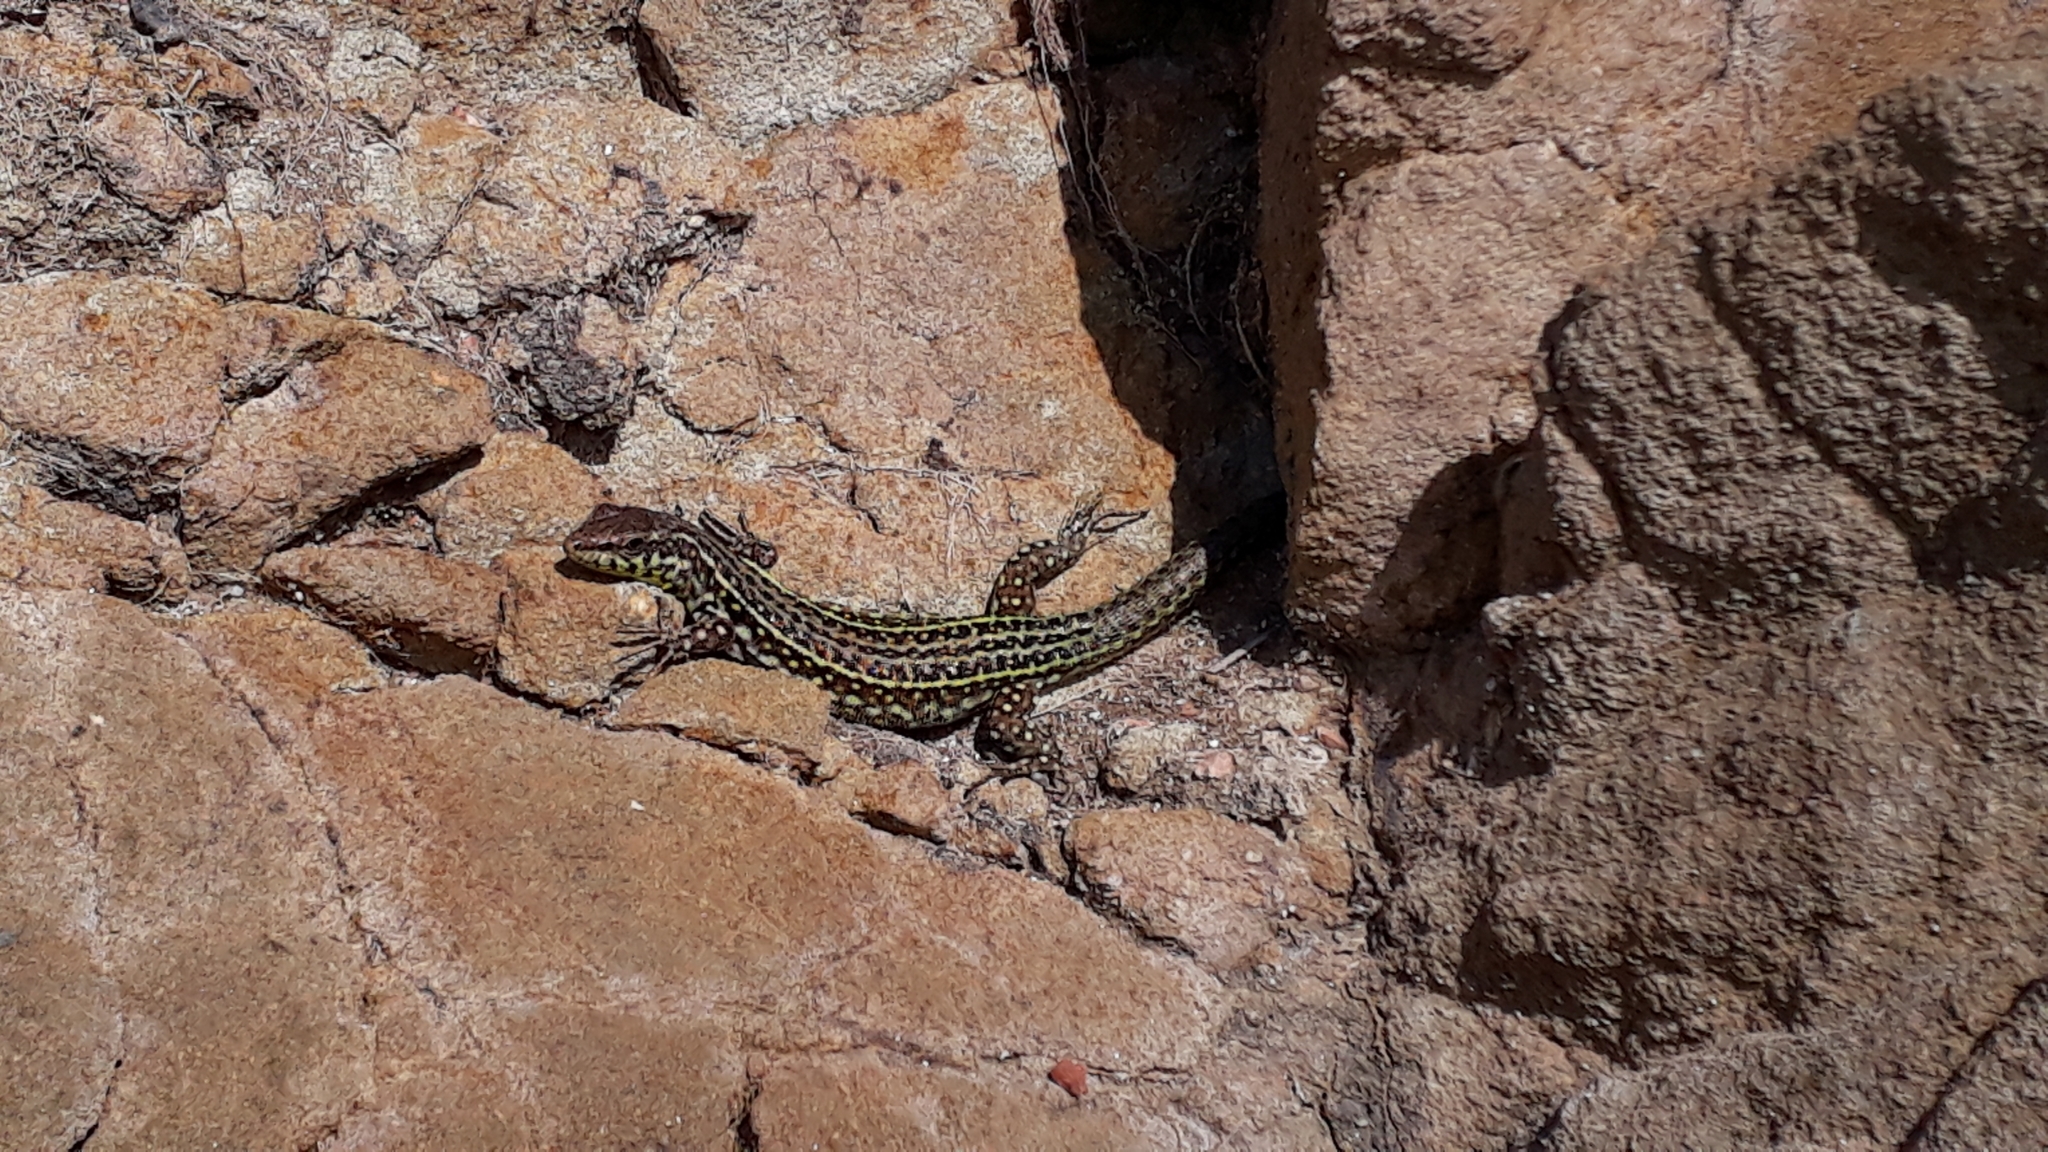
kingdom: Animalia
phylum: Chordata
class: Squamata
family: Lacertidae
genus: Podarcis
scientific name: Podarcis tiliguerta
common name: Tyrrhenian wall lizard
